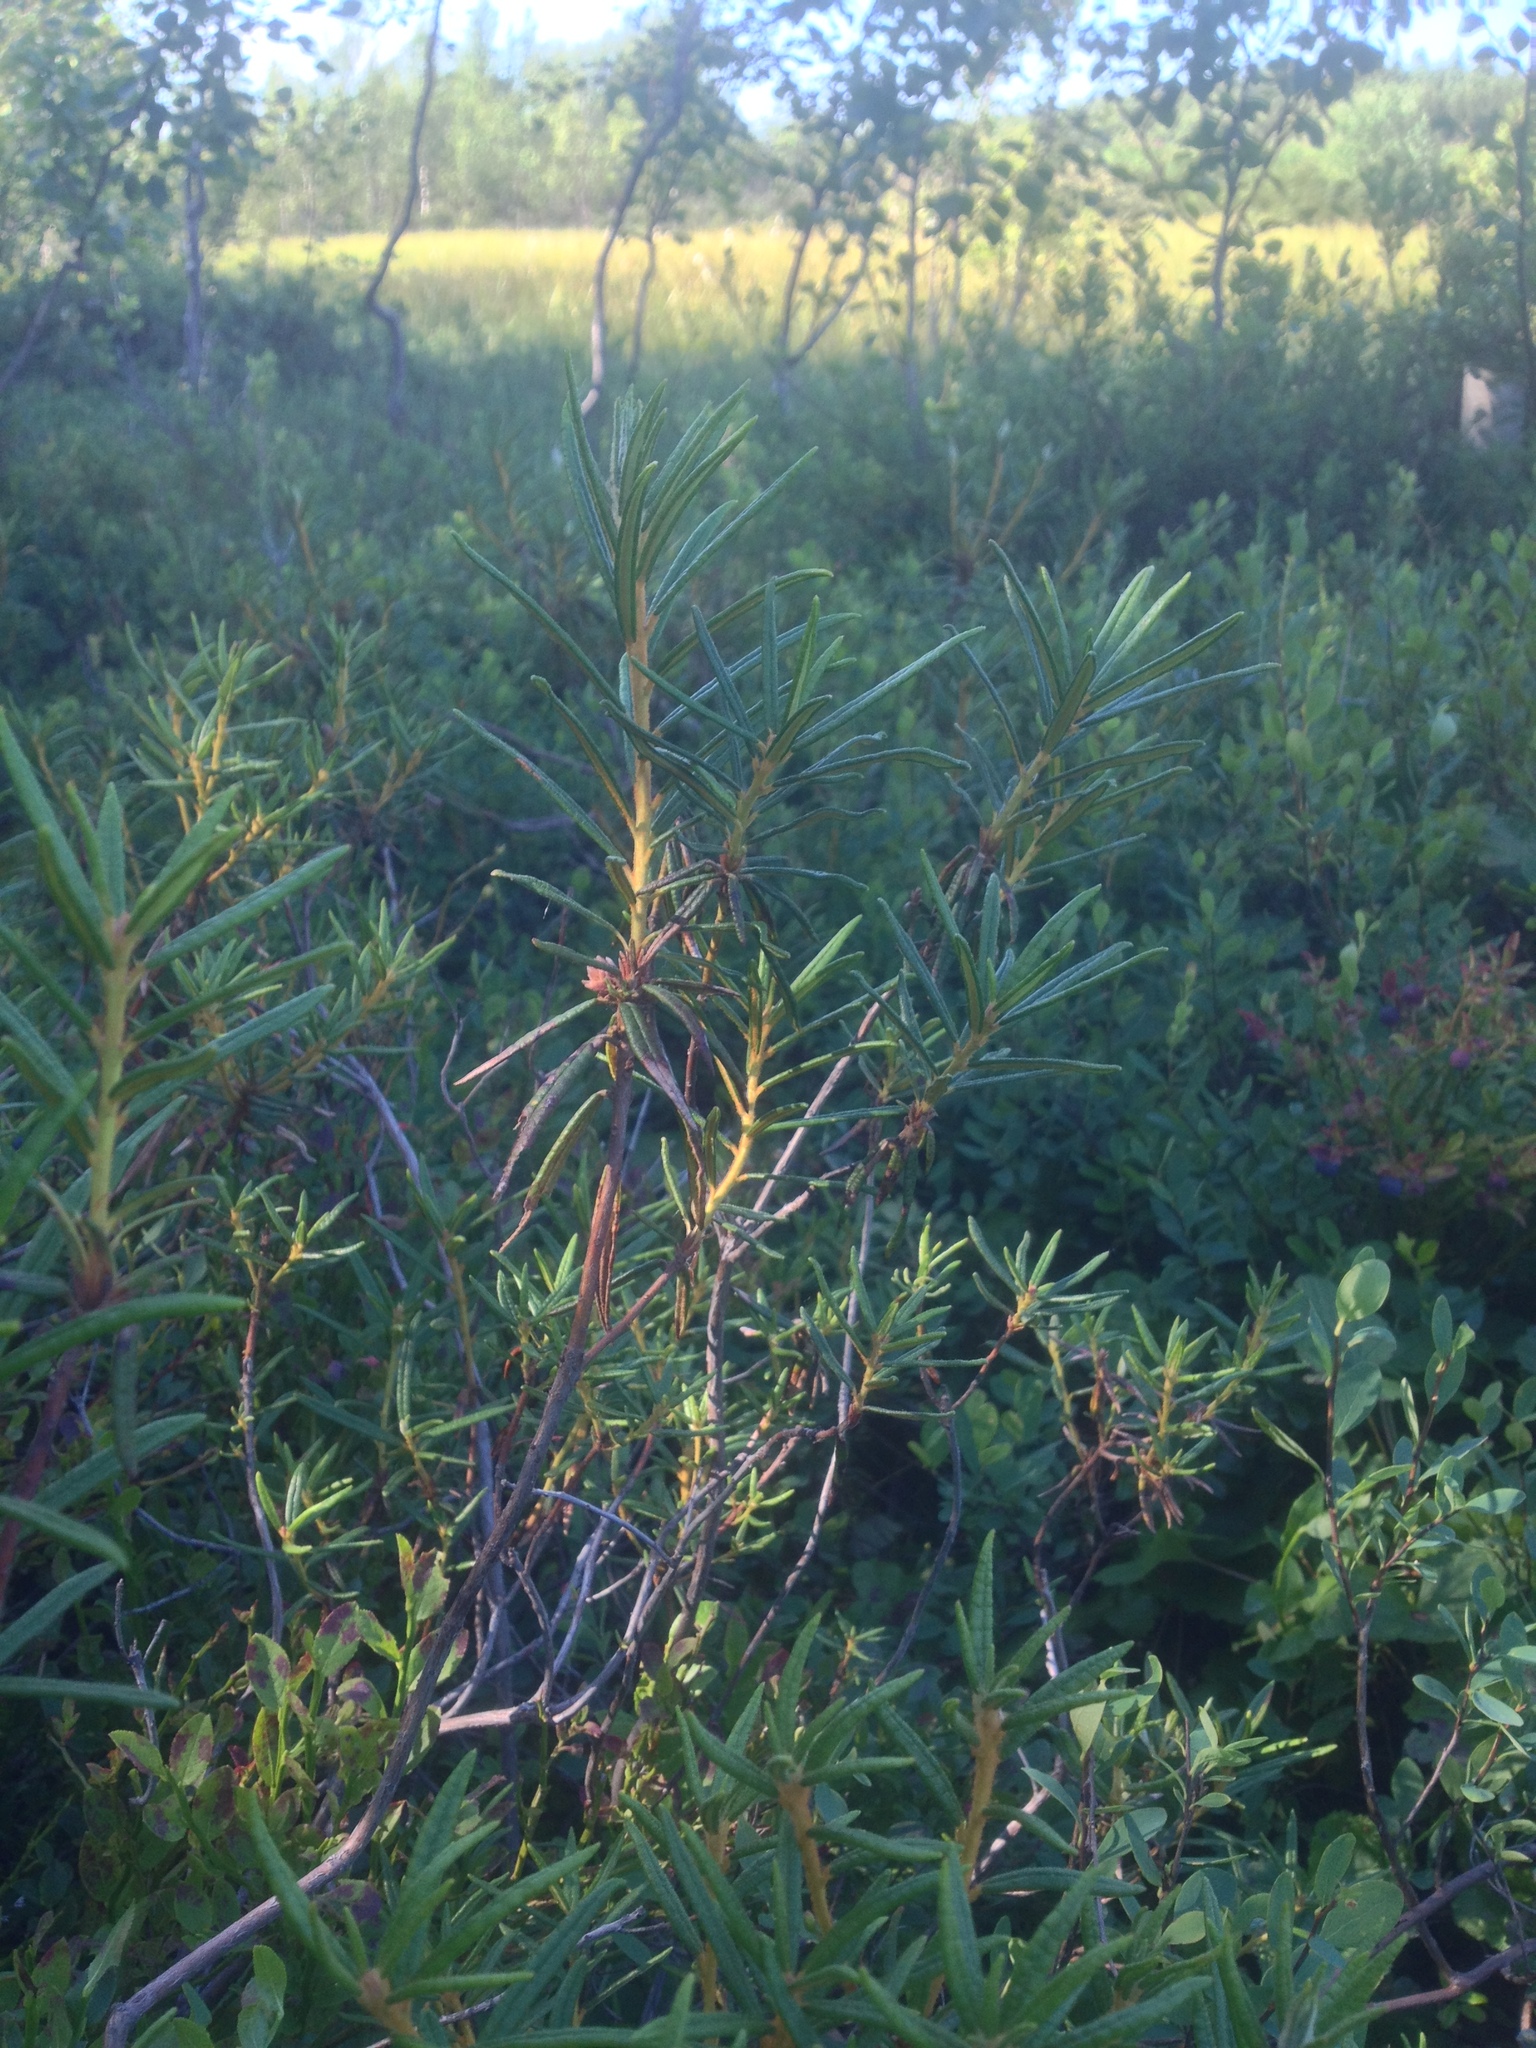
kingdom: Plantae
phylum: Tracheophyta
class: Magnoliopsida
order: Ericales
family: Ericaceae
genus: Rhododendron
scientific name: Rhododendron tomentosum
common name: Marsh labrador tea
